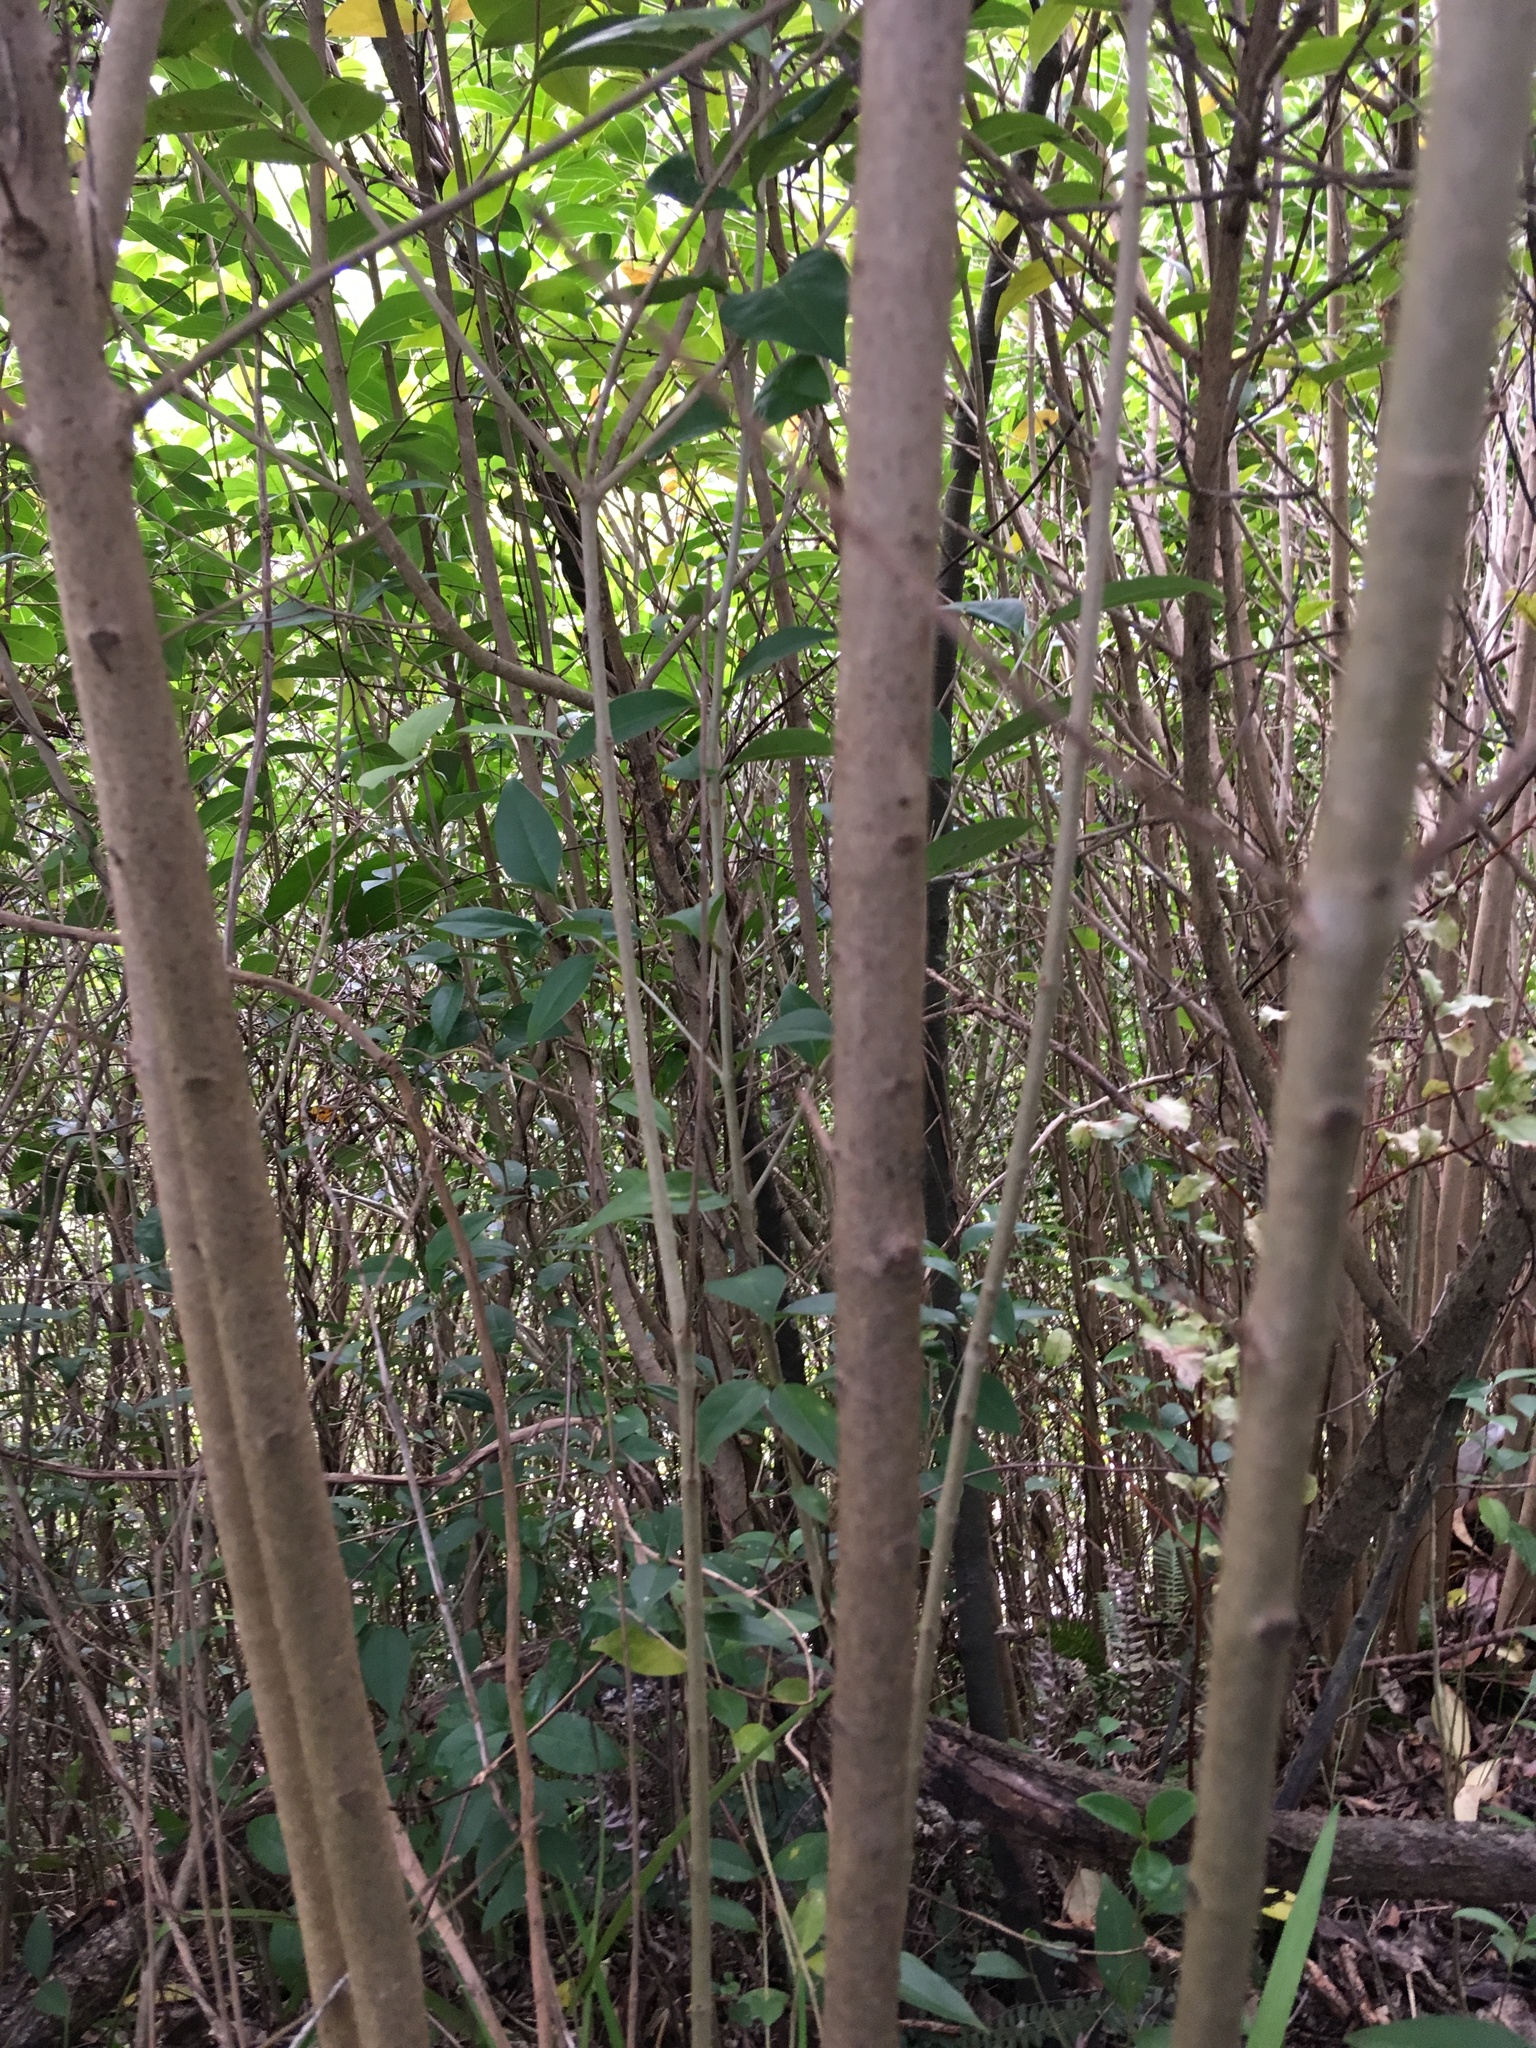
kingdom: Plantae
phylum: Tracheophyta
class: Magnoliopsida
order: Lamiales
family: Oleaceae
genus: Ligustrum
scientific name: Ligustrum lucidum
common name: Glossy privet
